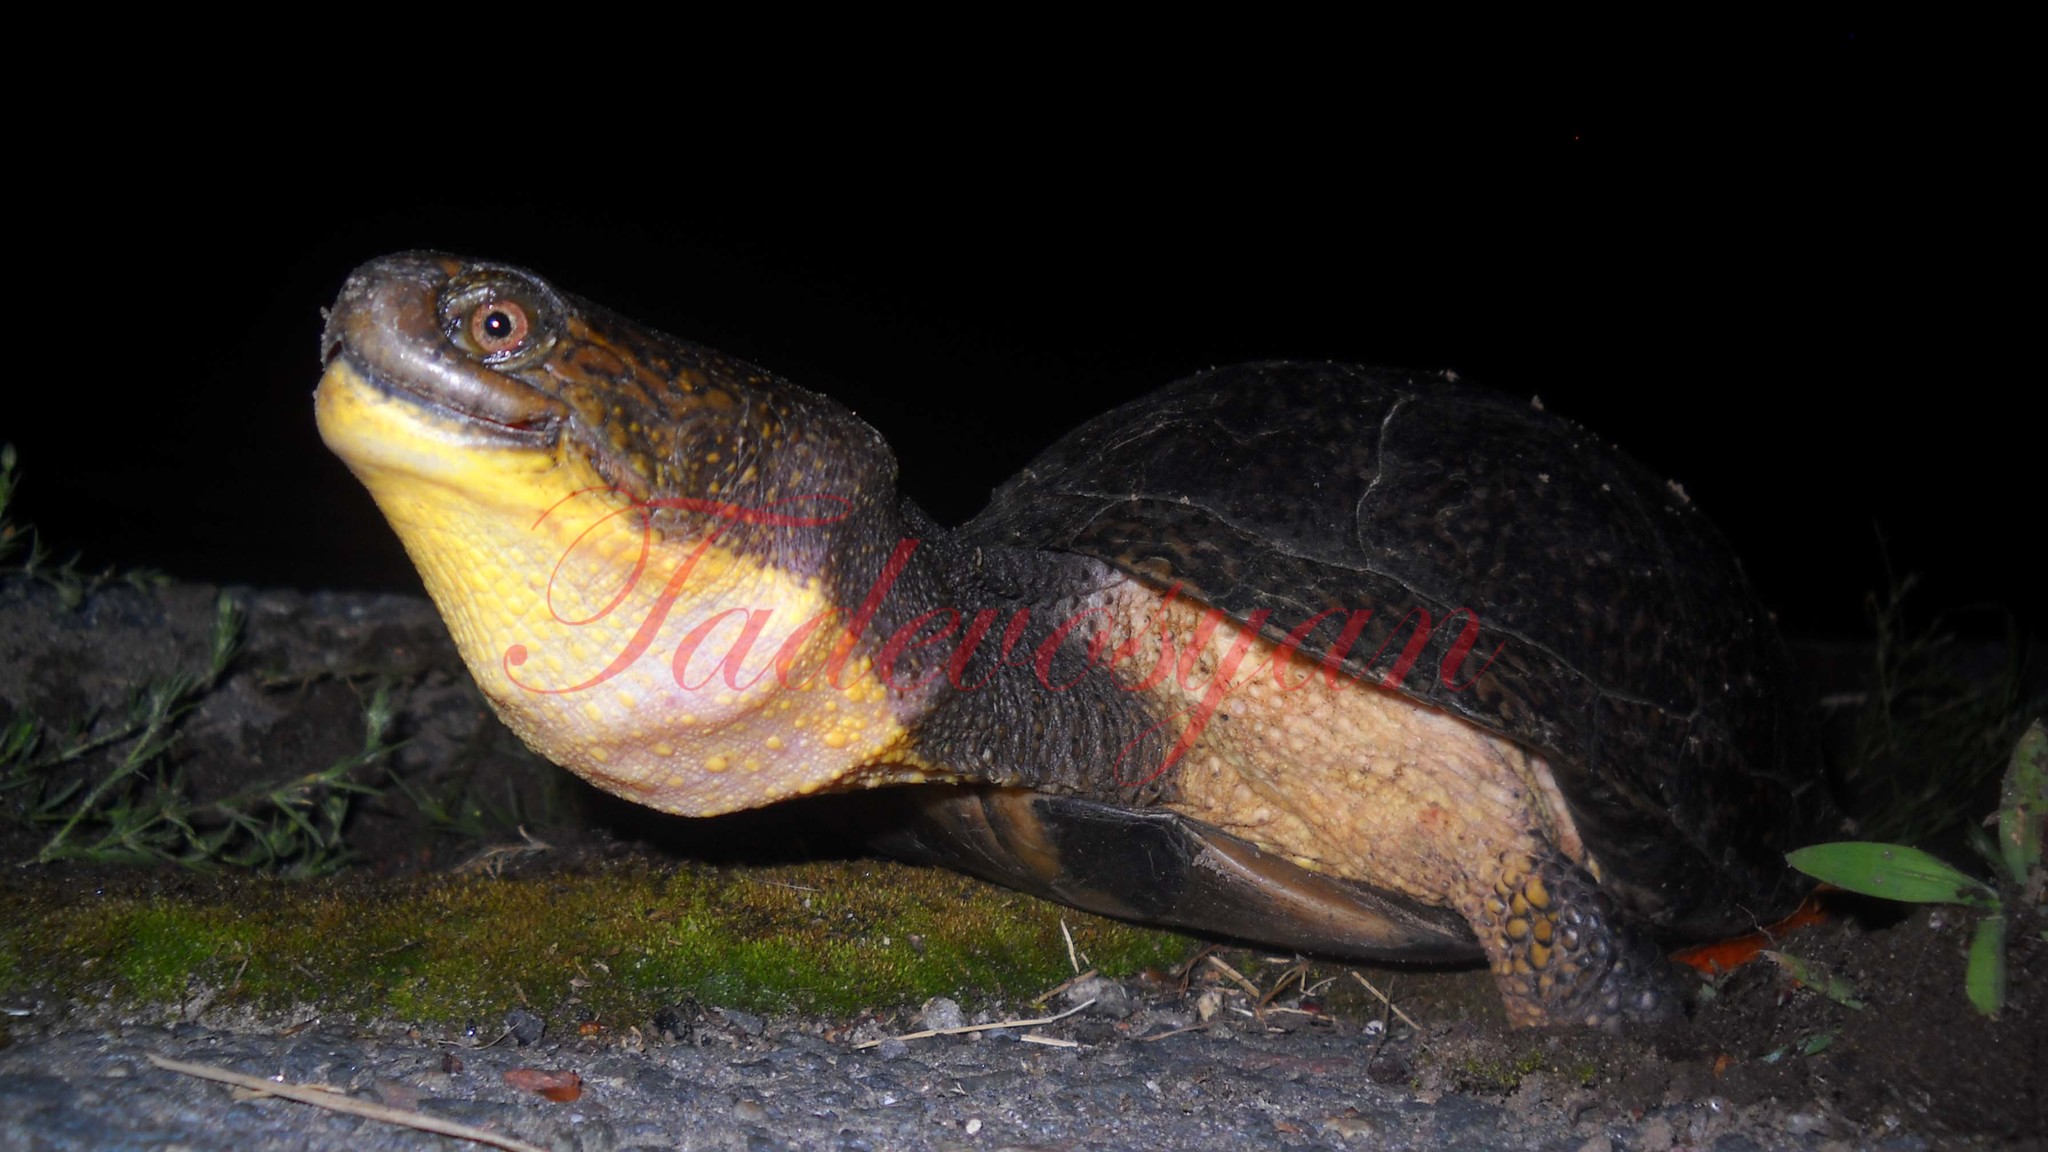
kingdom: Animalia
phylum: Chordata
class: Testudines
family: Emydidae
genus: Emys
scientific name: Emys blandingii
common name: Blanding's turtle
